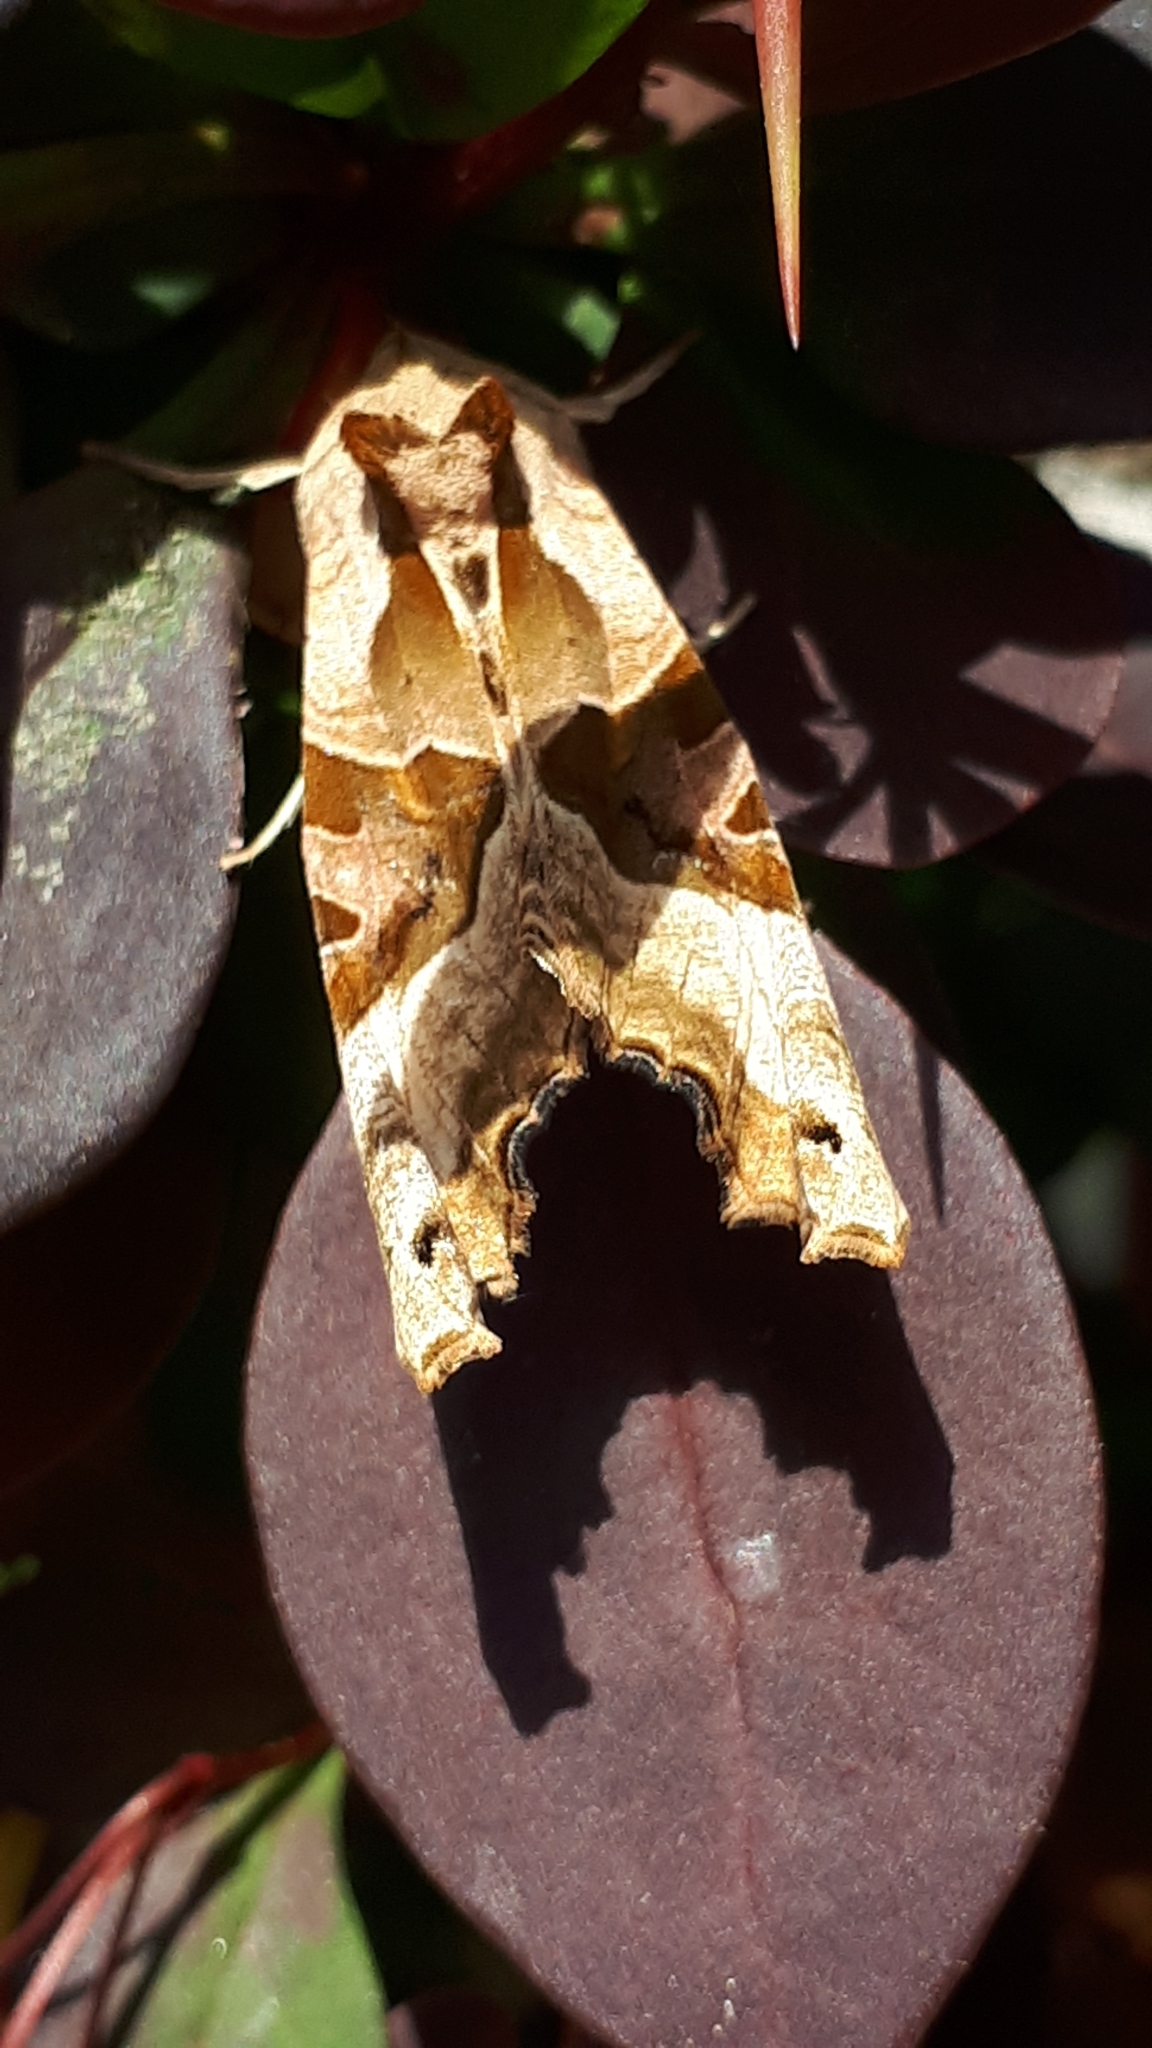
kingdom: Animalia
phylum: Arthropoda
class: Insecta
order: Lepidoptera
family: Noctuidae
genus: Phlogophora
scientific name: Phlogophora meticulosa
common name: Angle shades
